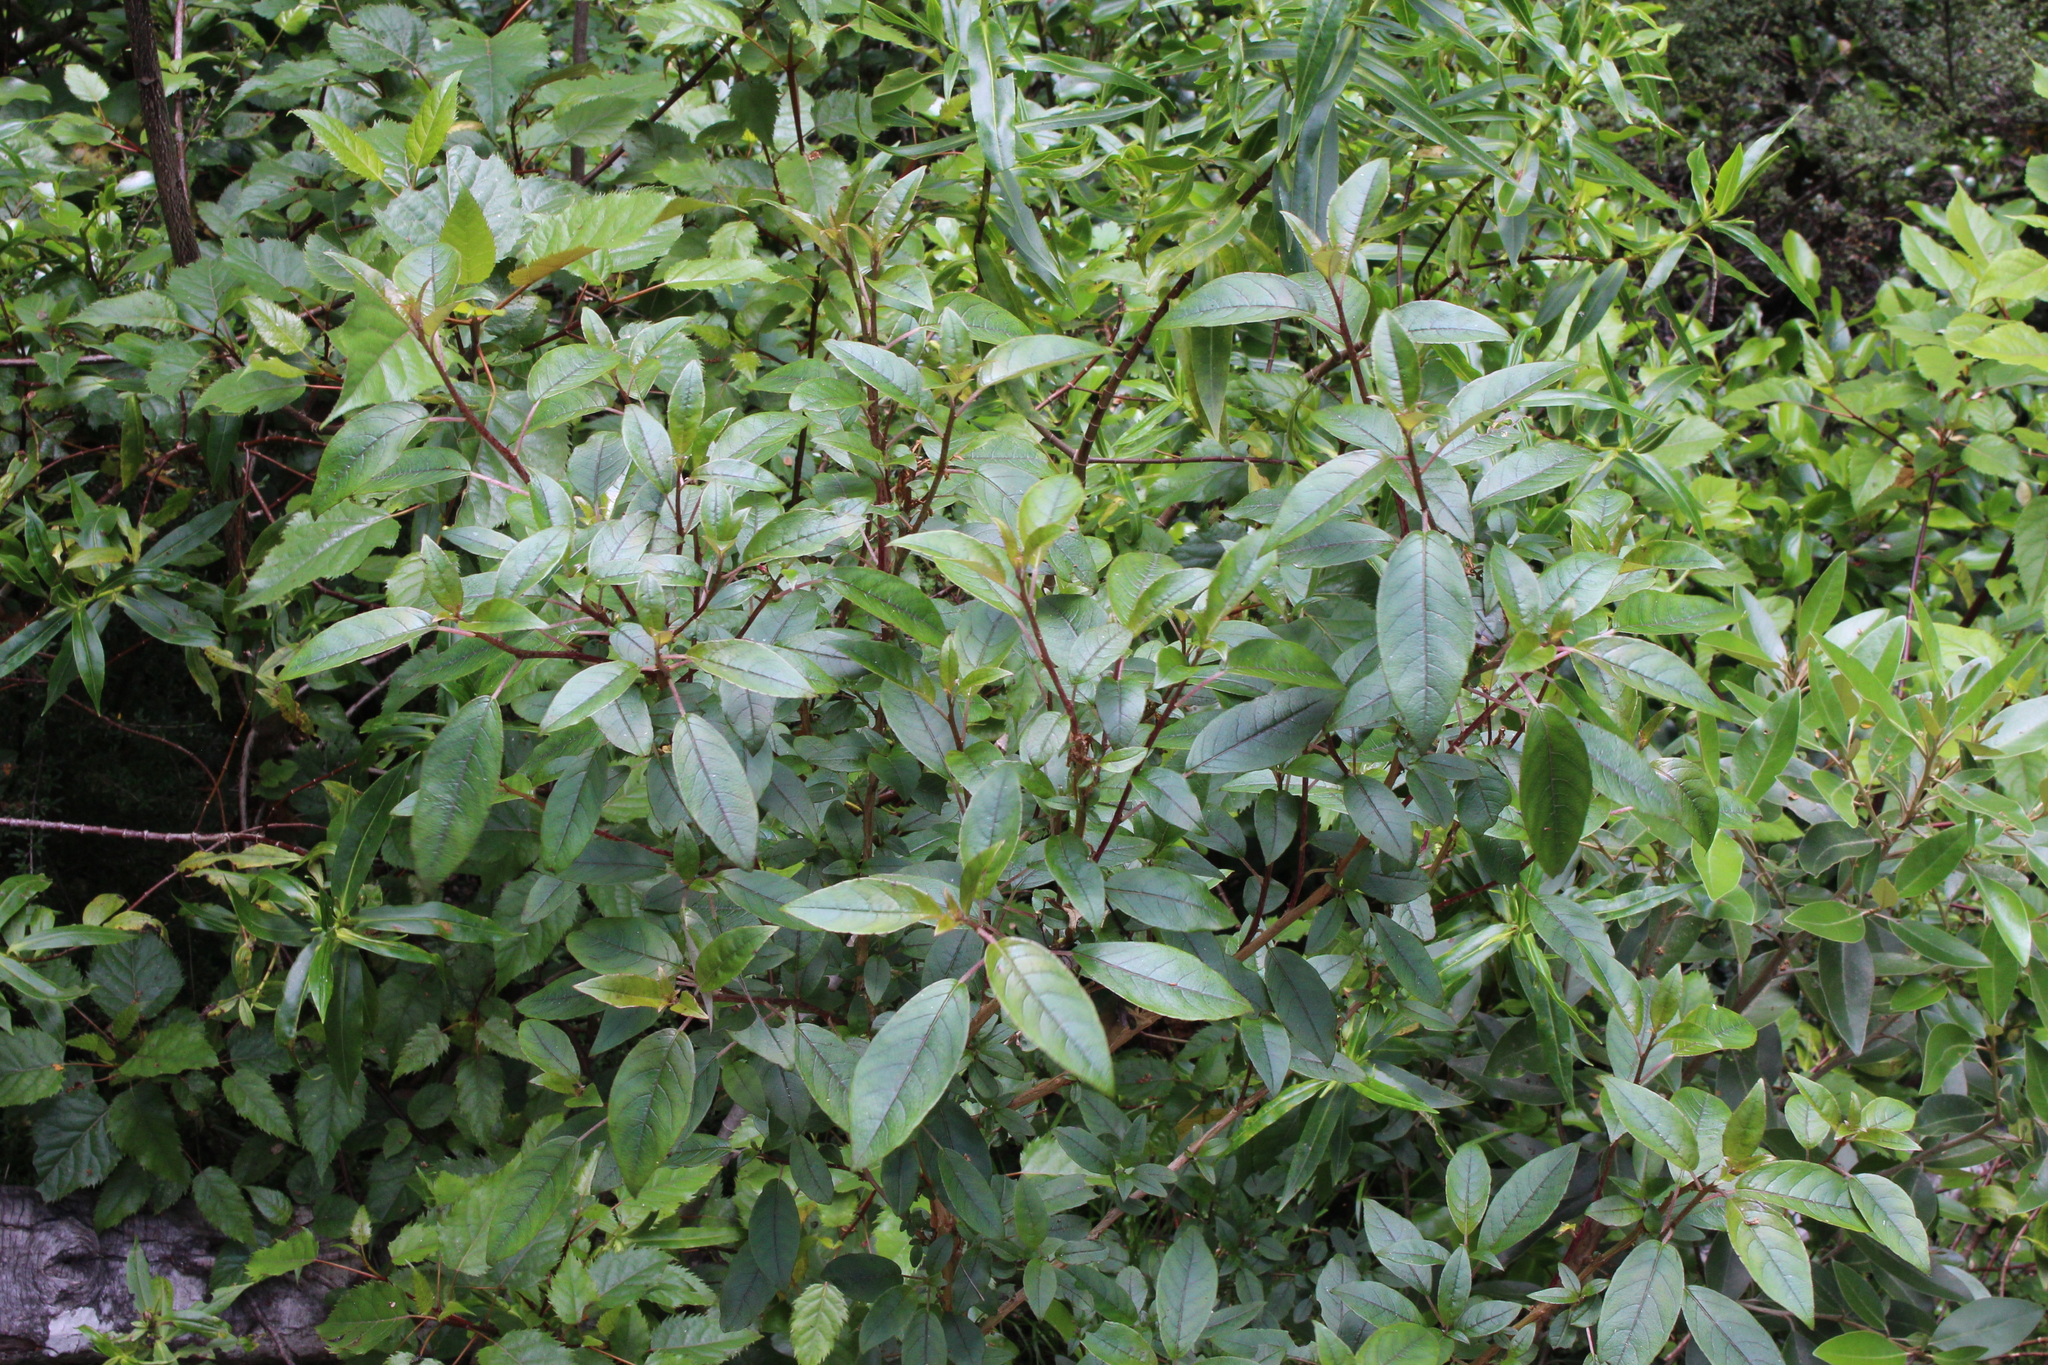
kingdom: Plantae
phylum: Tracheophyta
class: Magnoliopsida
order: Myrtales
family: Onagraceae
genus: Fuchsia
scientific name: Fuchsia excorticata
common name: Tree fuchsia
